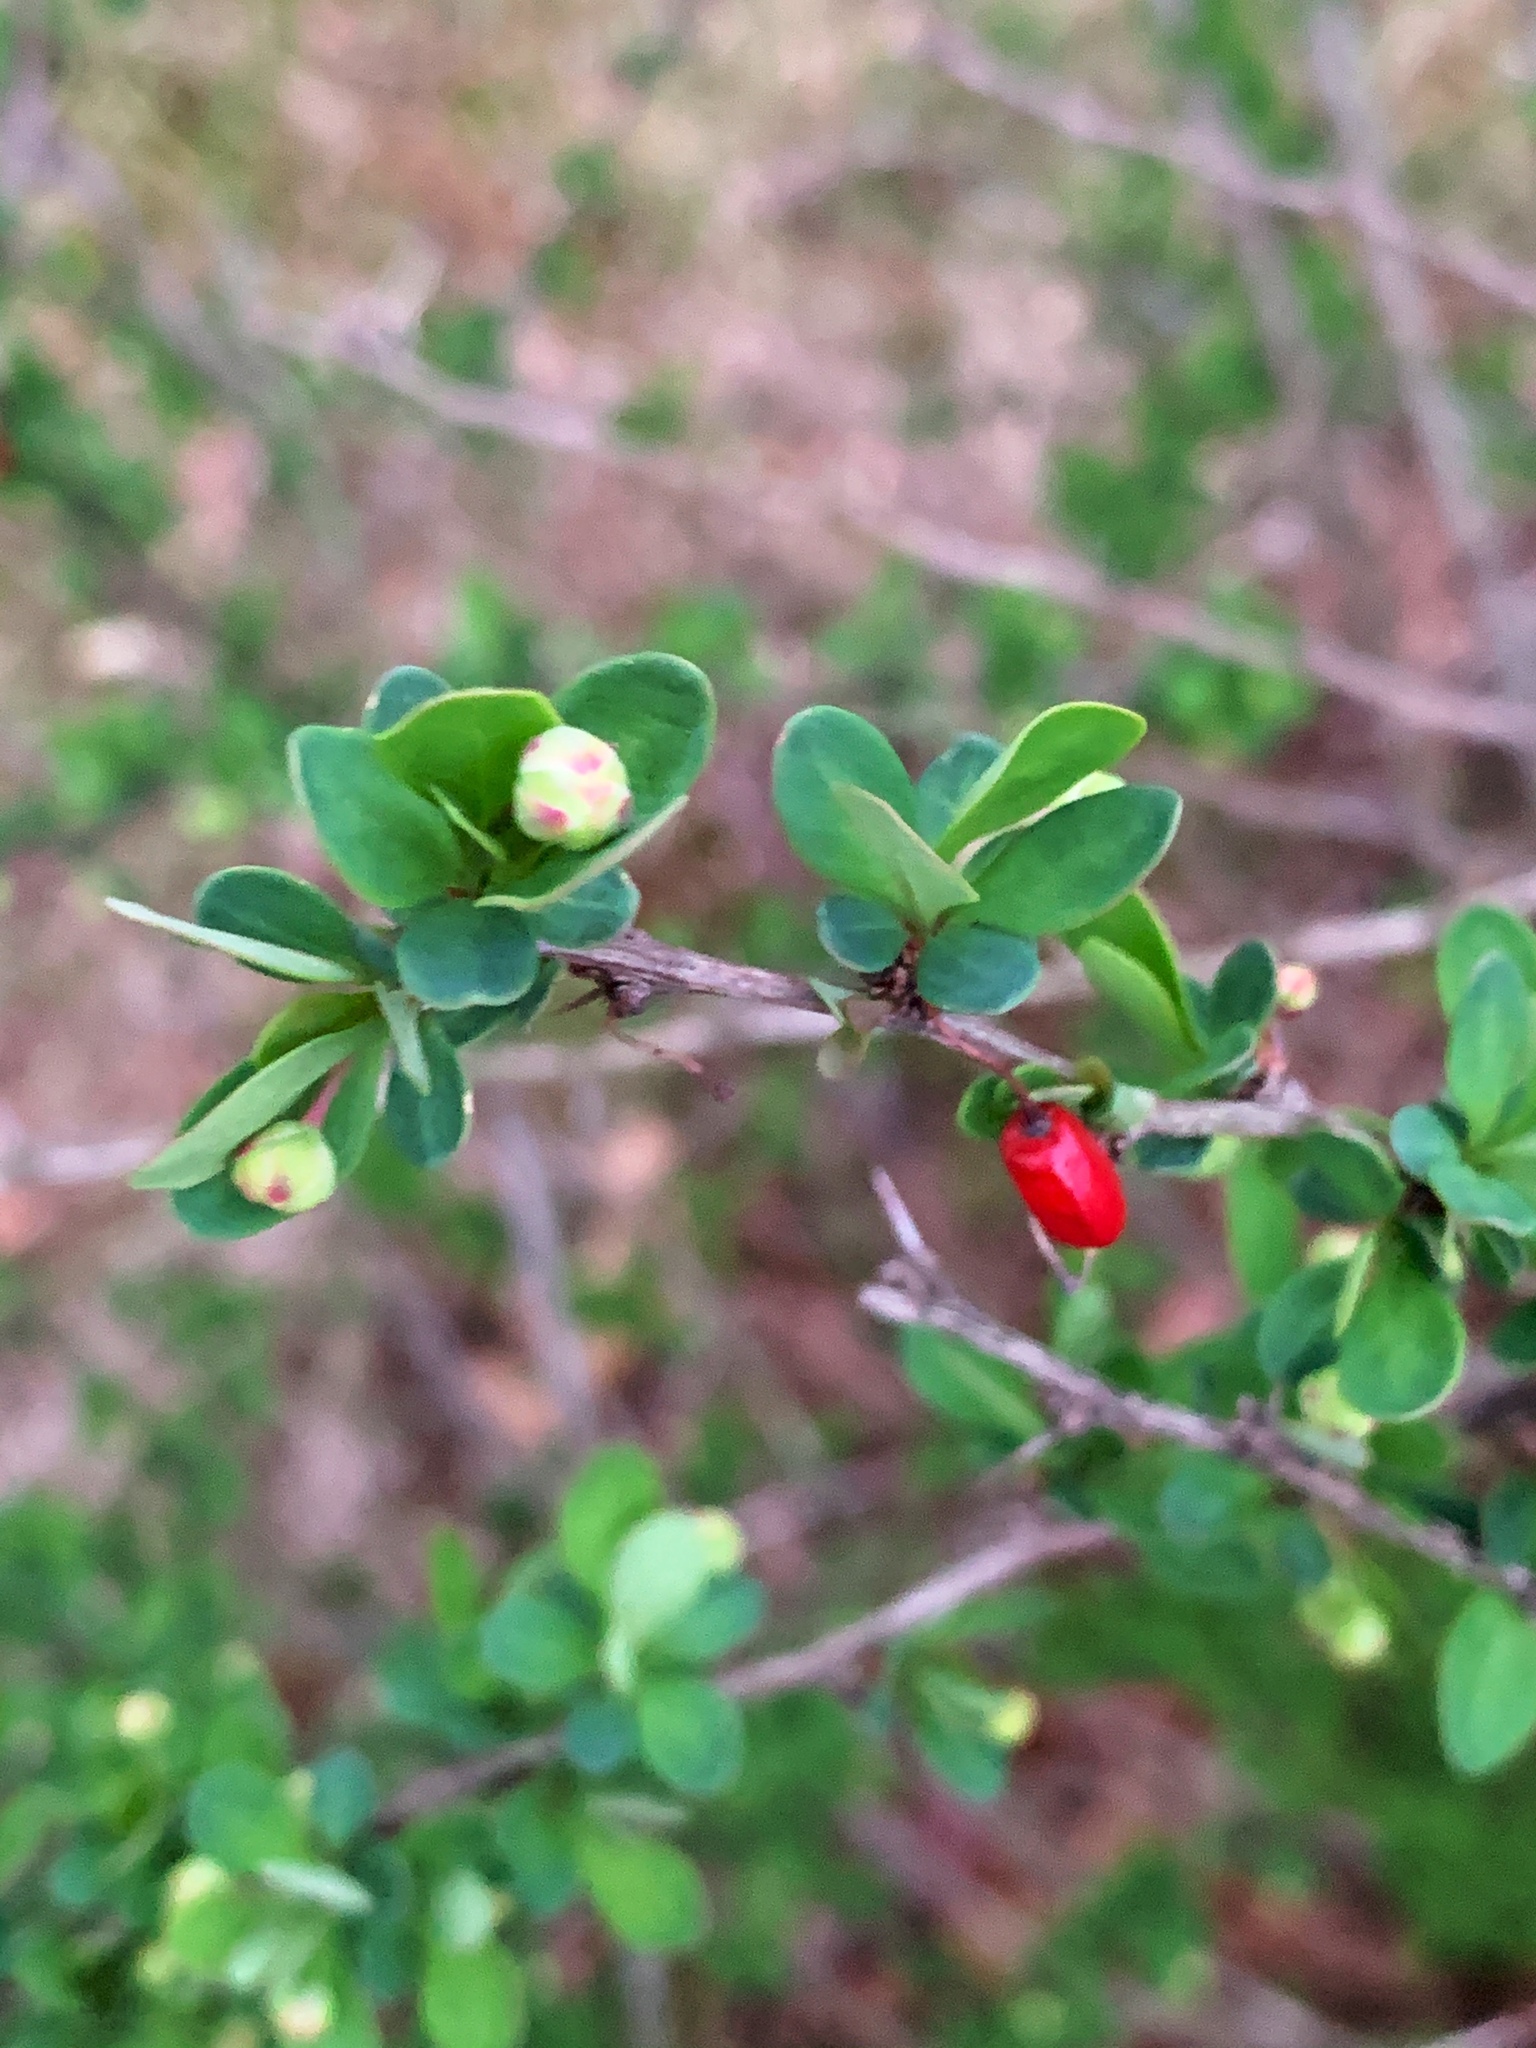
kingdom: Plantae
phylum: Tracheophyta
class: Magnoliopsida
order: Ranunculales
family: Berberidaceae
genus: Berberis
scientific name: Berberis thunbergii
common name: Japanese barberry
